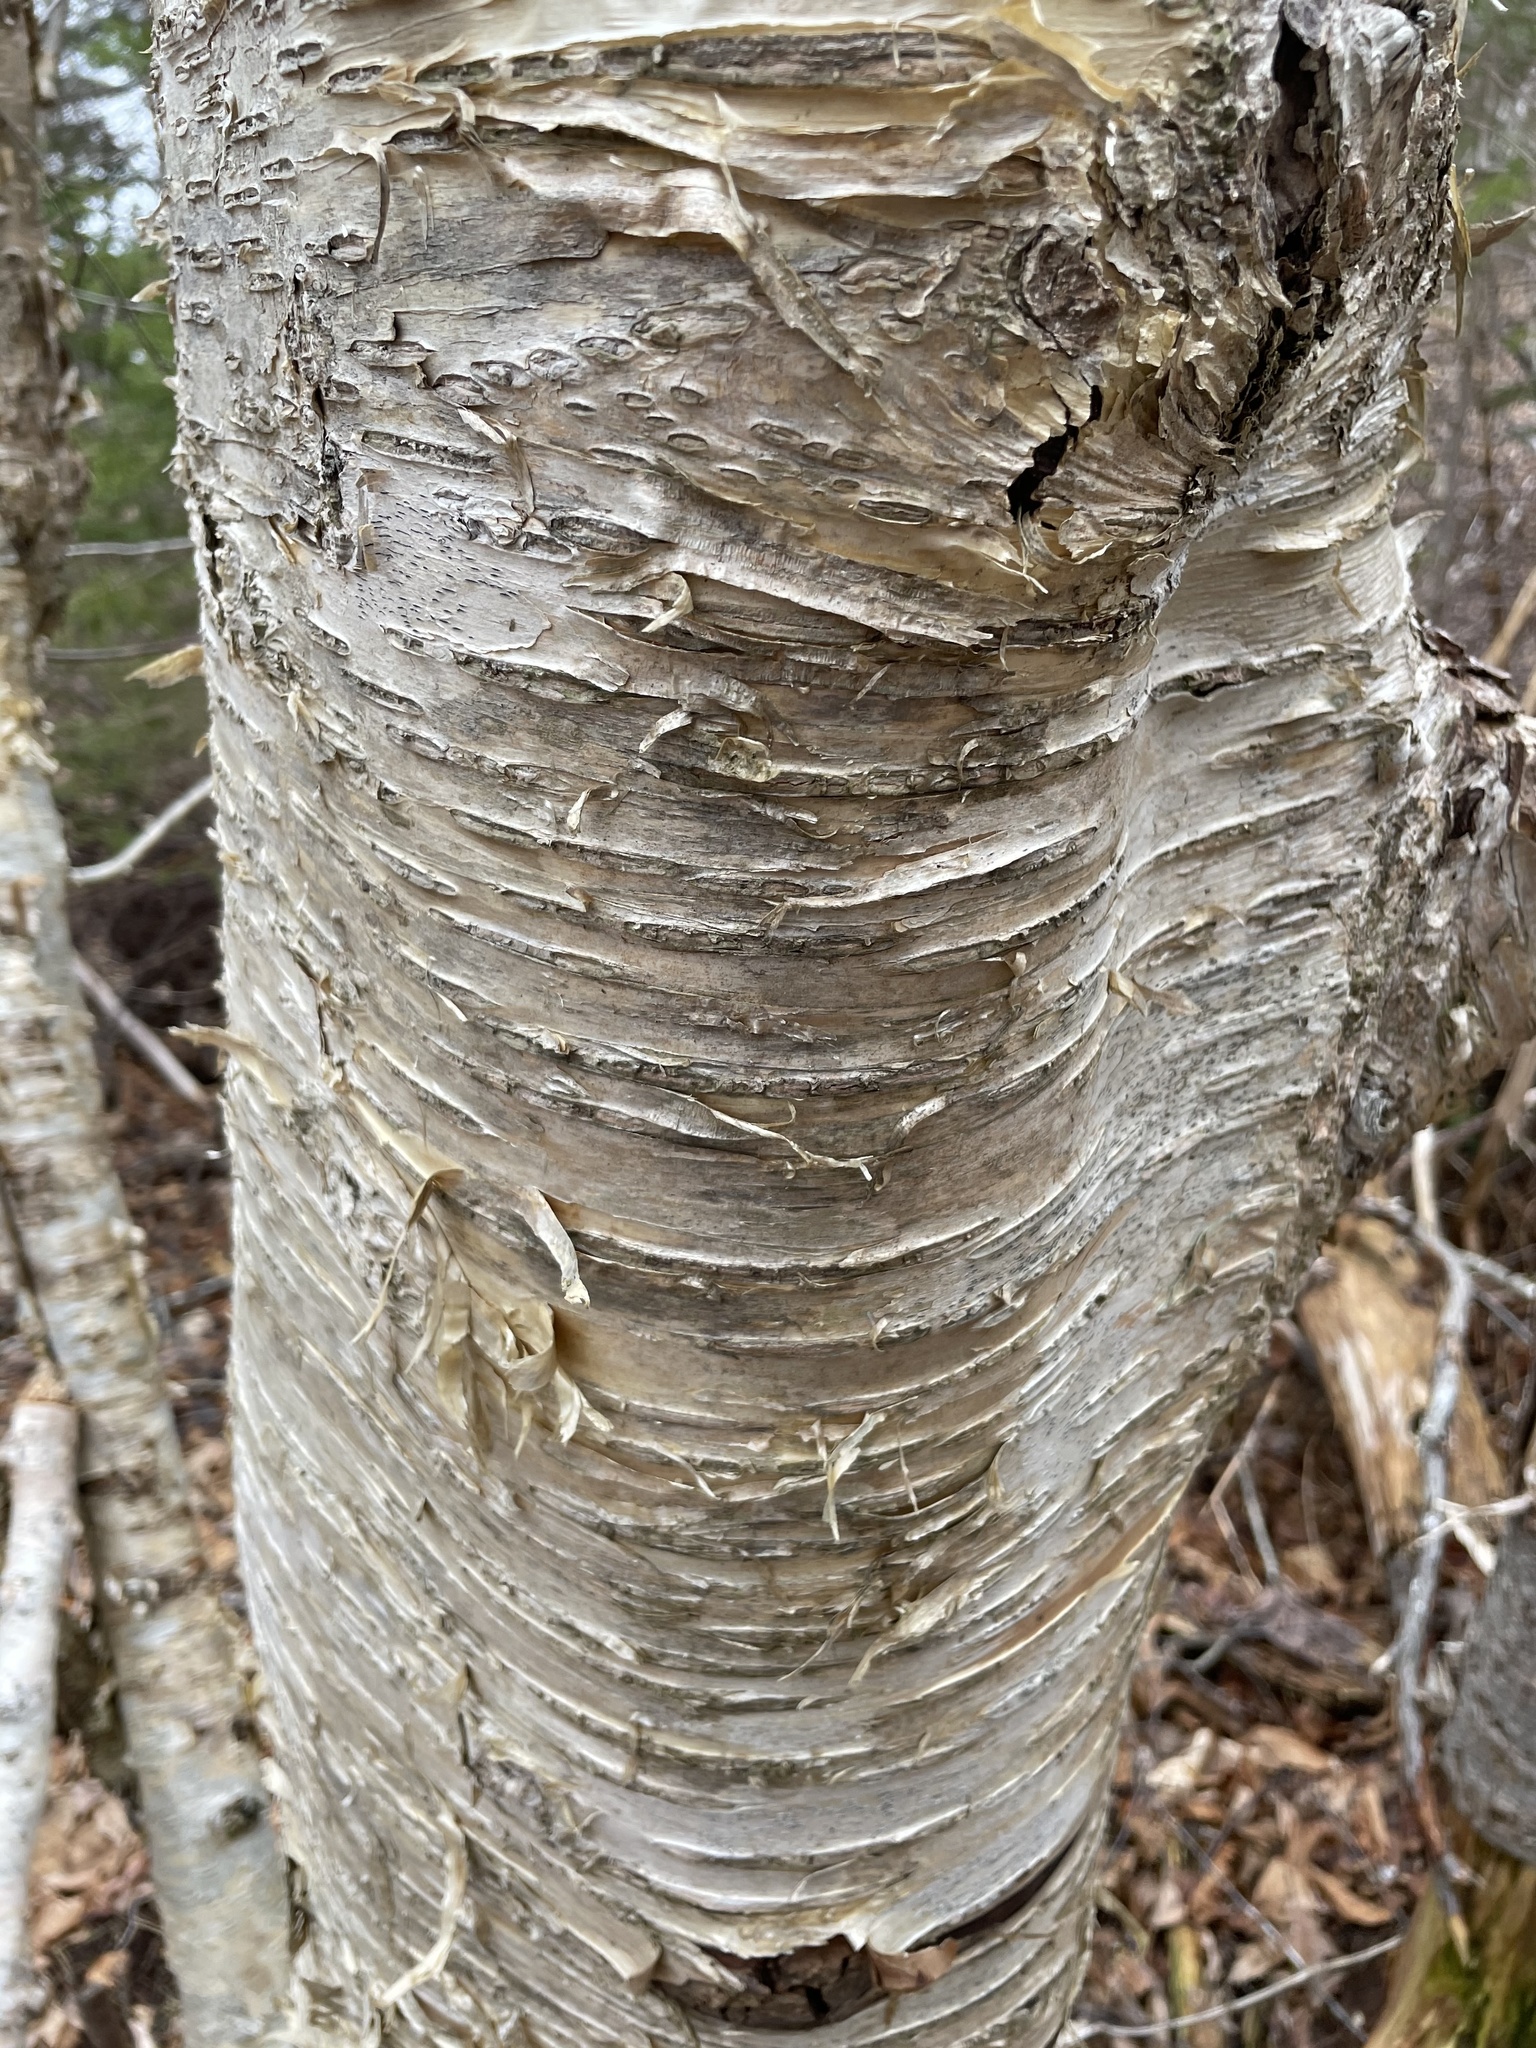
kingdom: Plantae
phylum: Tracheophyta
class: Magnoliopsida
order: Fagales
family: Betulaceae
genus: Betula
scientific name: Betula alleghaniensis
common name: Yellow birch
